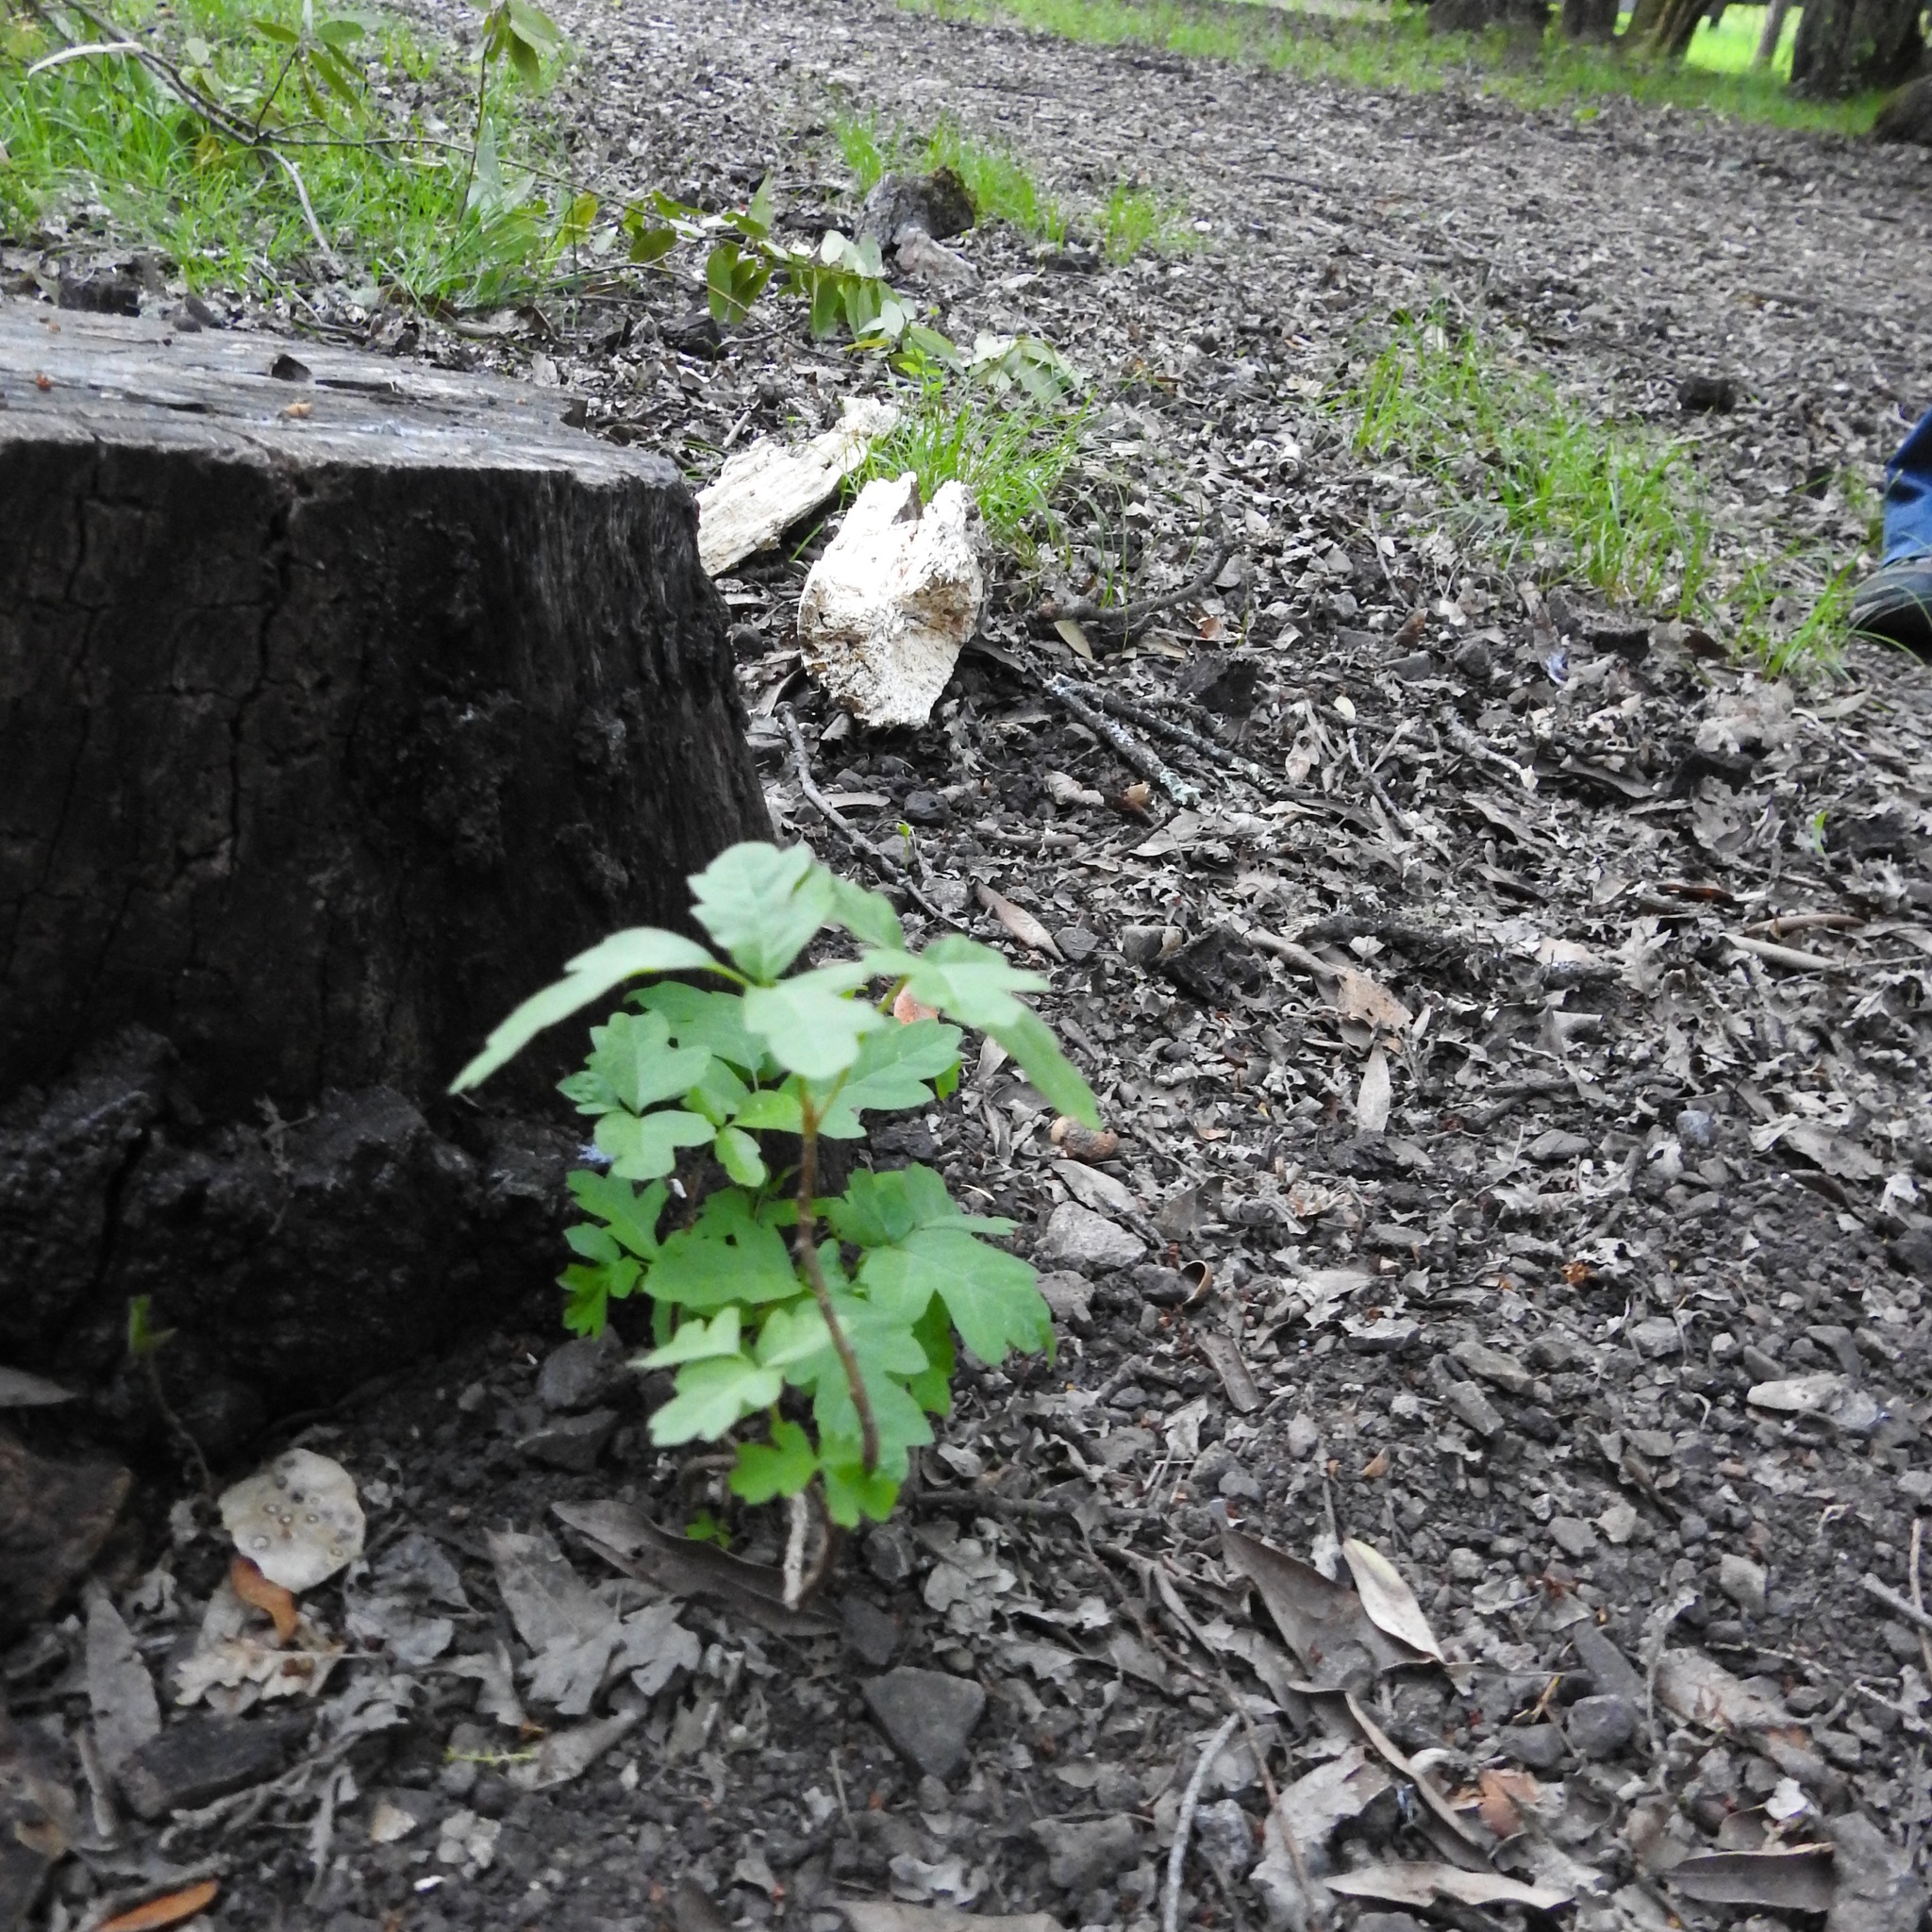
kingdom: Plantae
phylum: Tracheophyta
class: Magnoliopsida
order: Sapindales
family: Anacardiaceae
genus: Toxicodendron
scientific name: Toxicodendron diversilobum
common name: Pacific poison-oak
